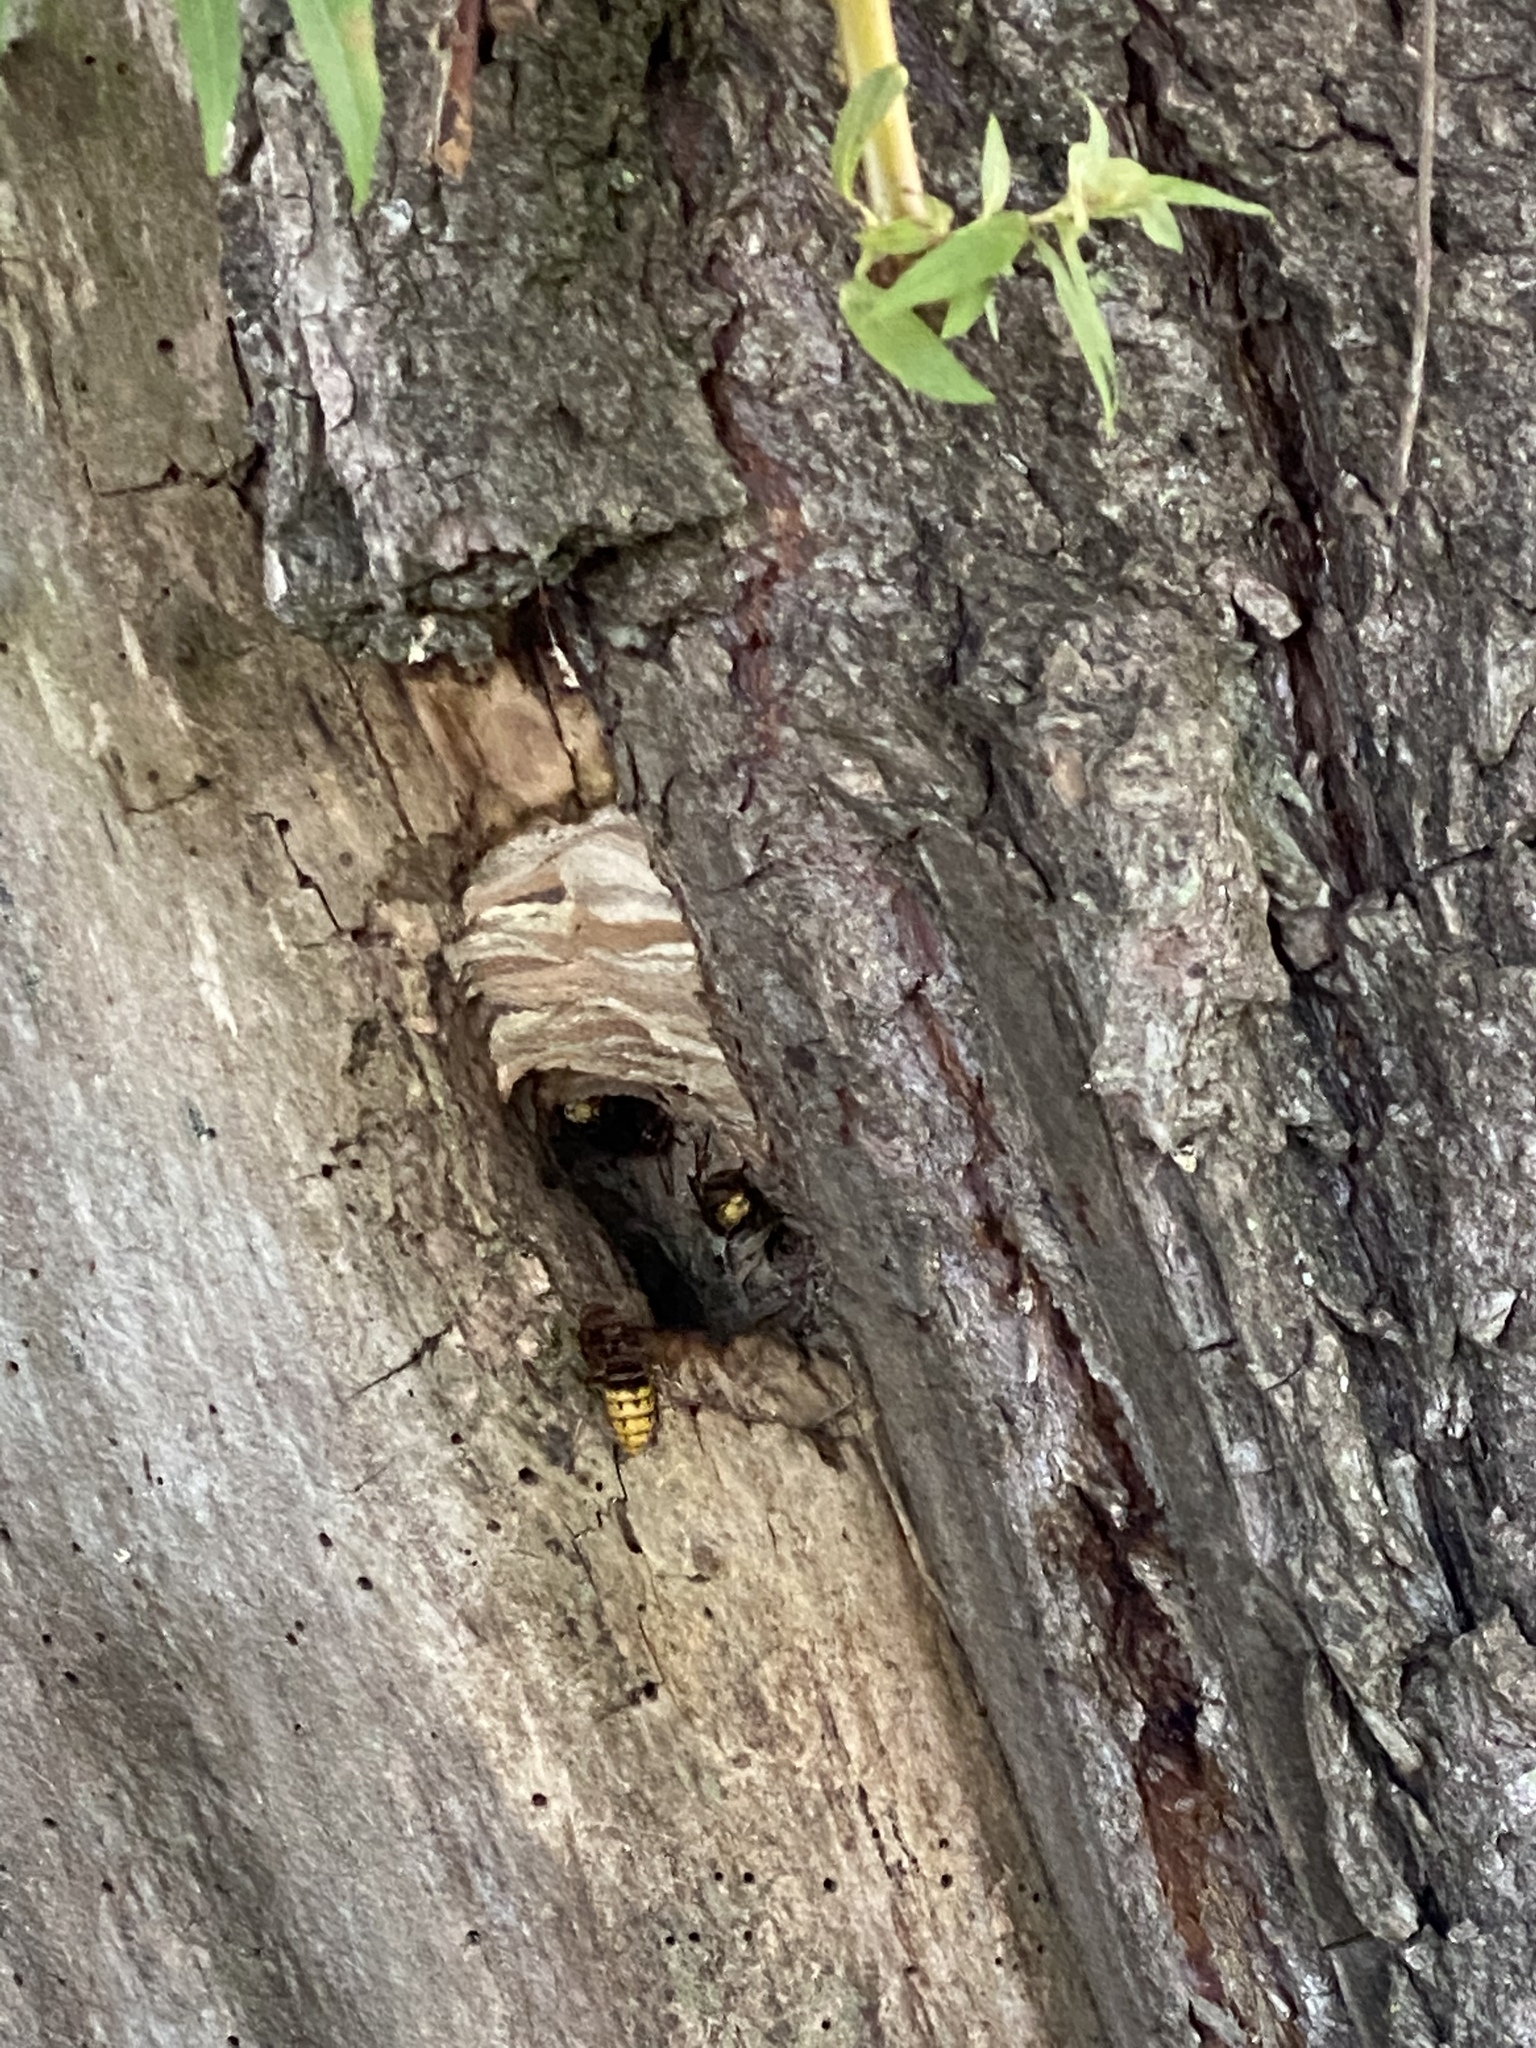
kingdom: Animalia
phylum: Arthropoda
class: Insecta
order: Hymenoptera
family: Vespidae
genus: Vespa
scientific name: Vespa crabro
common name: Hornet
